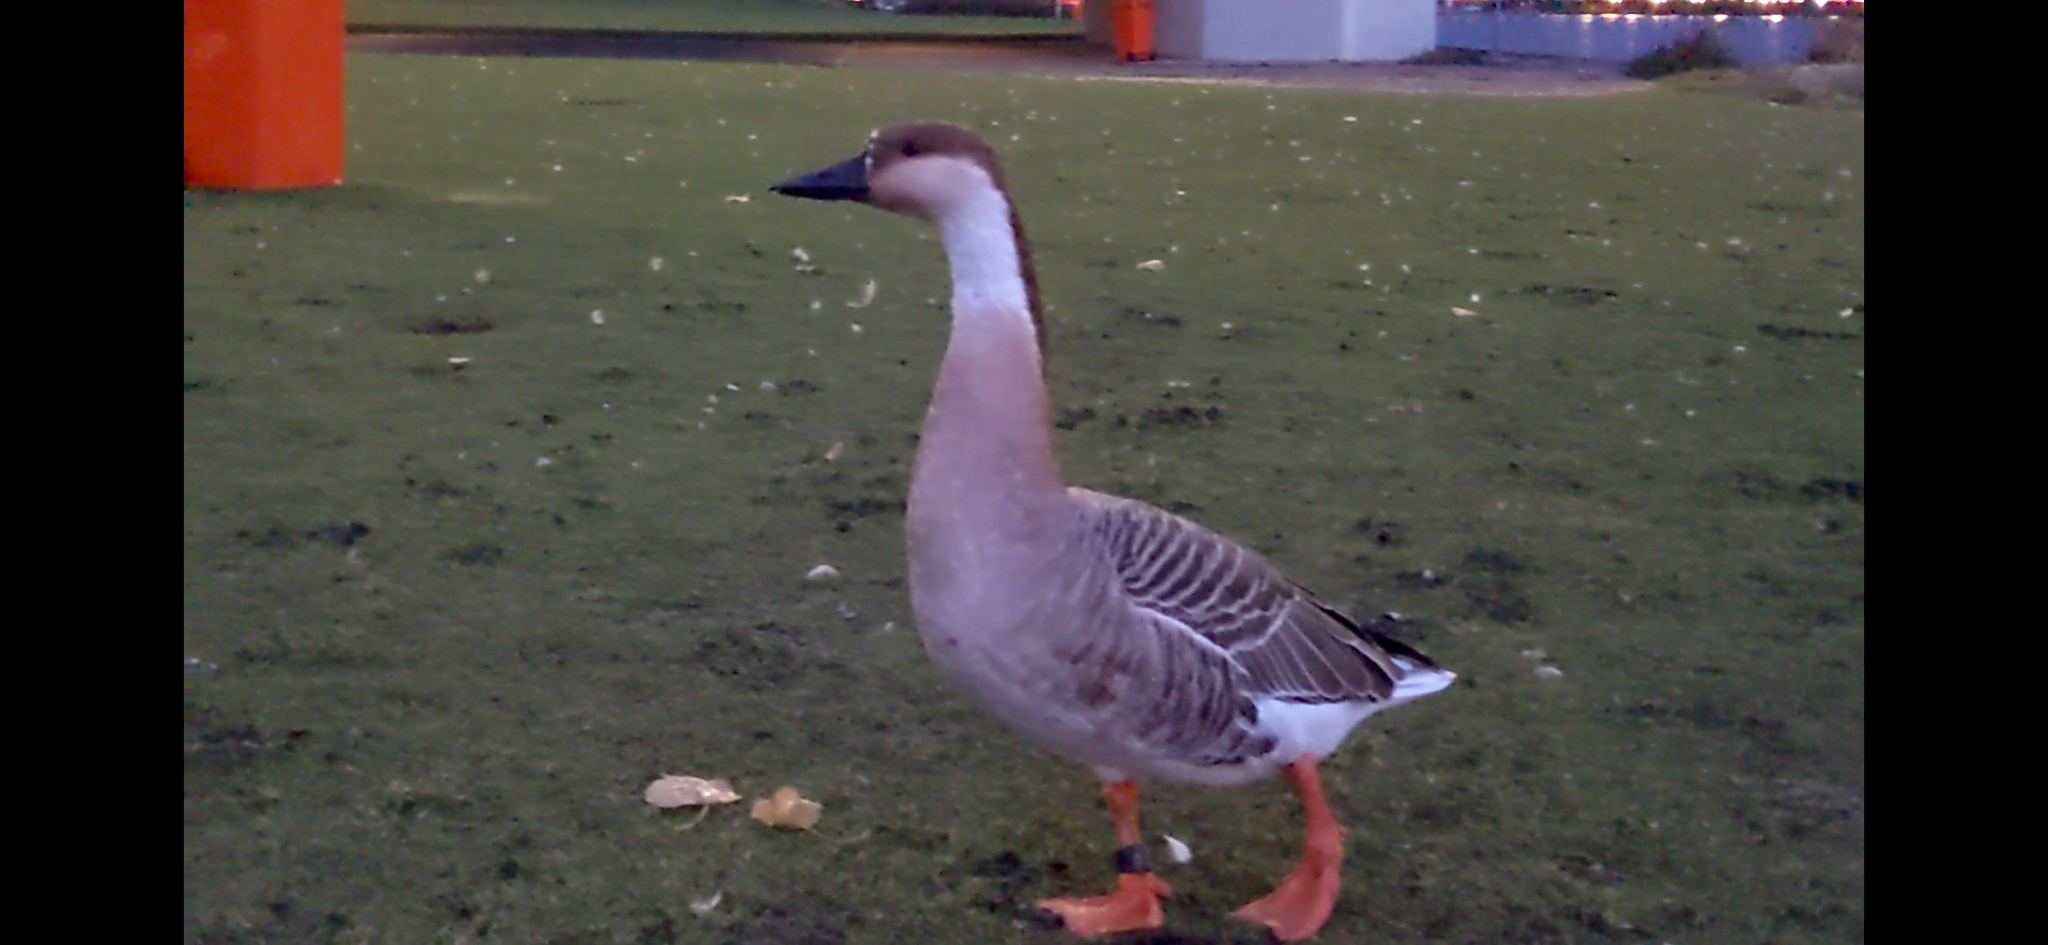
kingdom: Animalia
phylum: Chordata
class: Aves
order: Anseriformes
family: Anatidae
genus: Anser
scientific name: Anser cygnoides
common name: Swan goose
